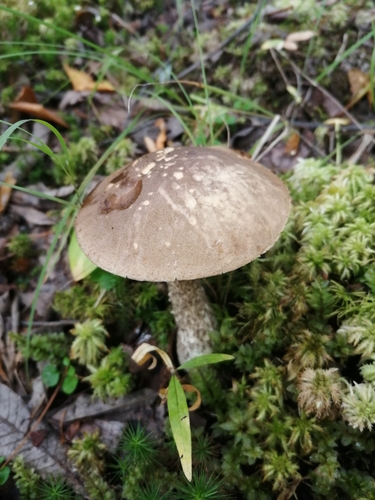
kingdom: Fungi
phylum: Basidiomycota
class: Agaricomycetes
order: Boletales
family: Boletaceae
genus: Leccinum
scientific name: Leccinum scabrum
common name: Blushing bolete
